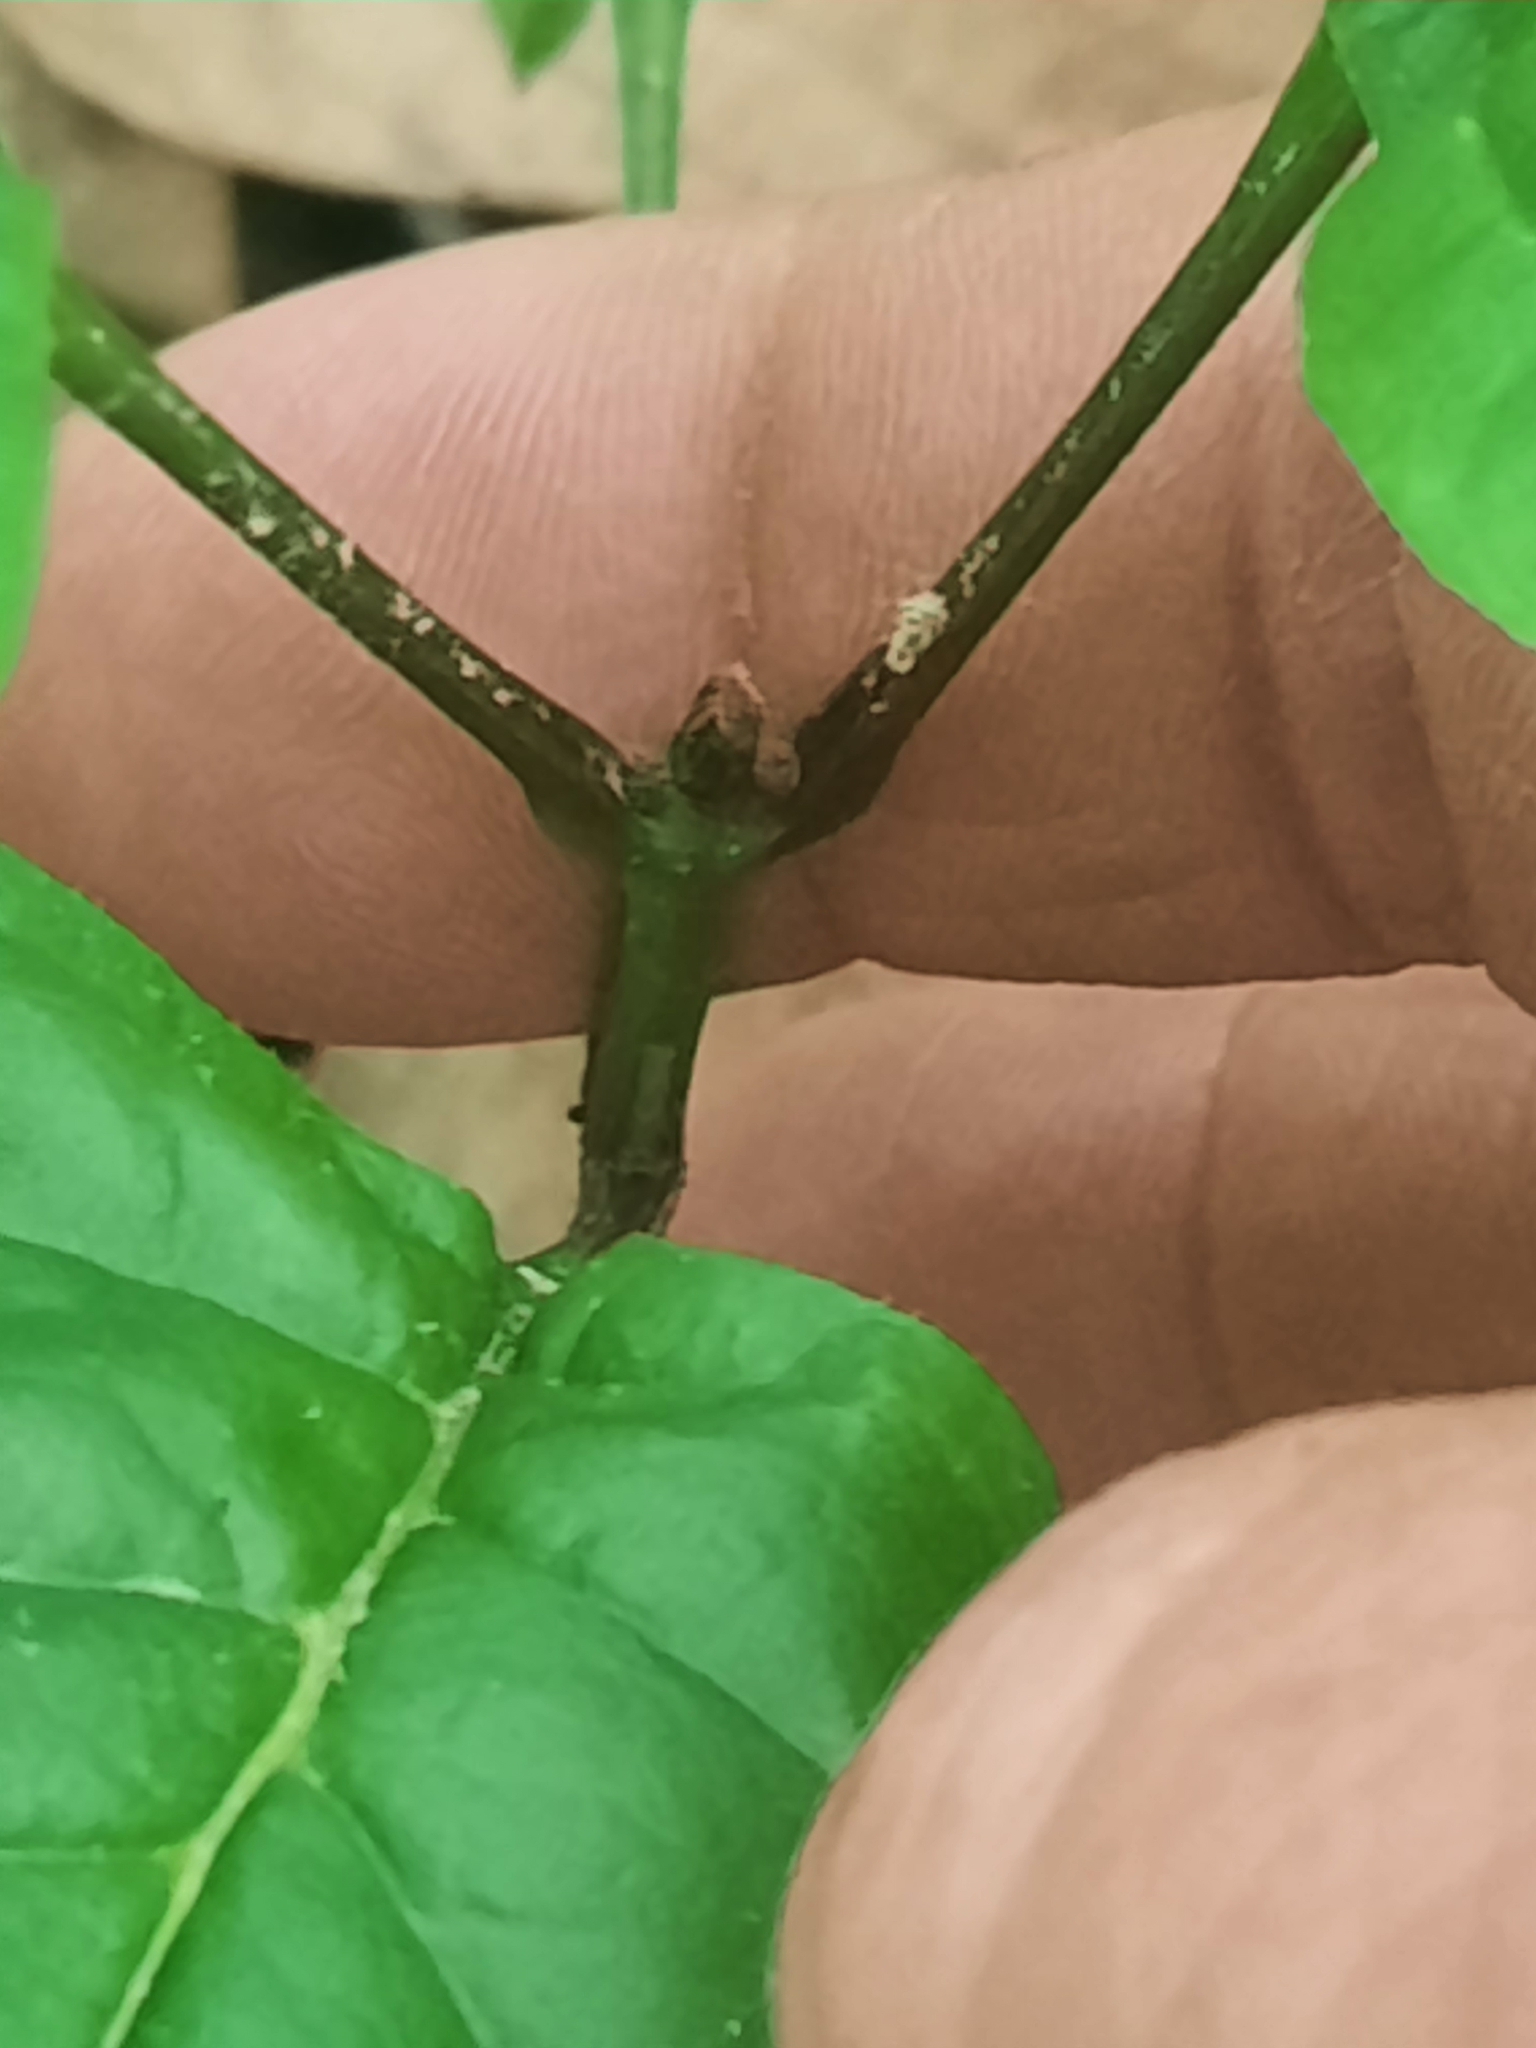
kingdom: Plantae
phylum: Tracheophyta
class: Magnoliopsida
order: Lamiales
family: Oleaceae
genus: Fraxinus
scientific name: Fraxinus americana
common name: White ash
